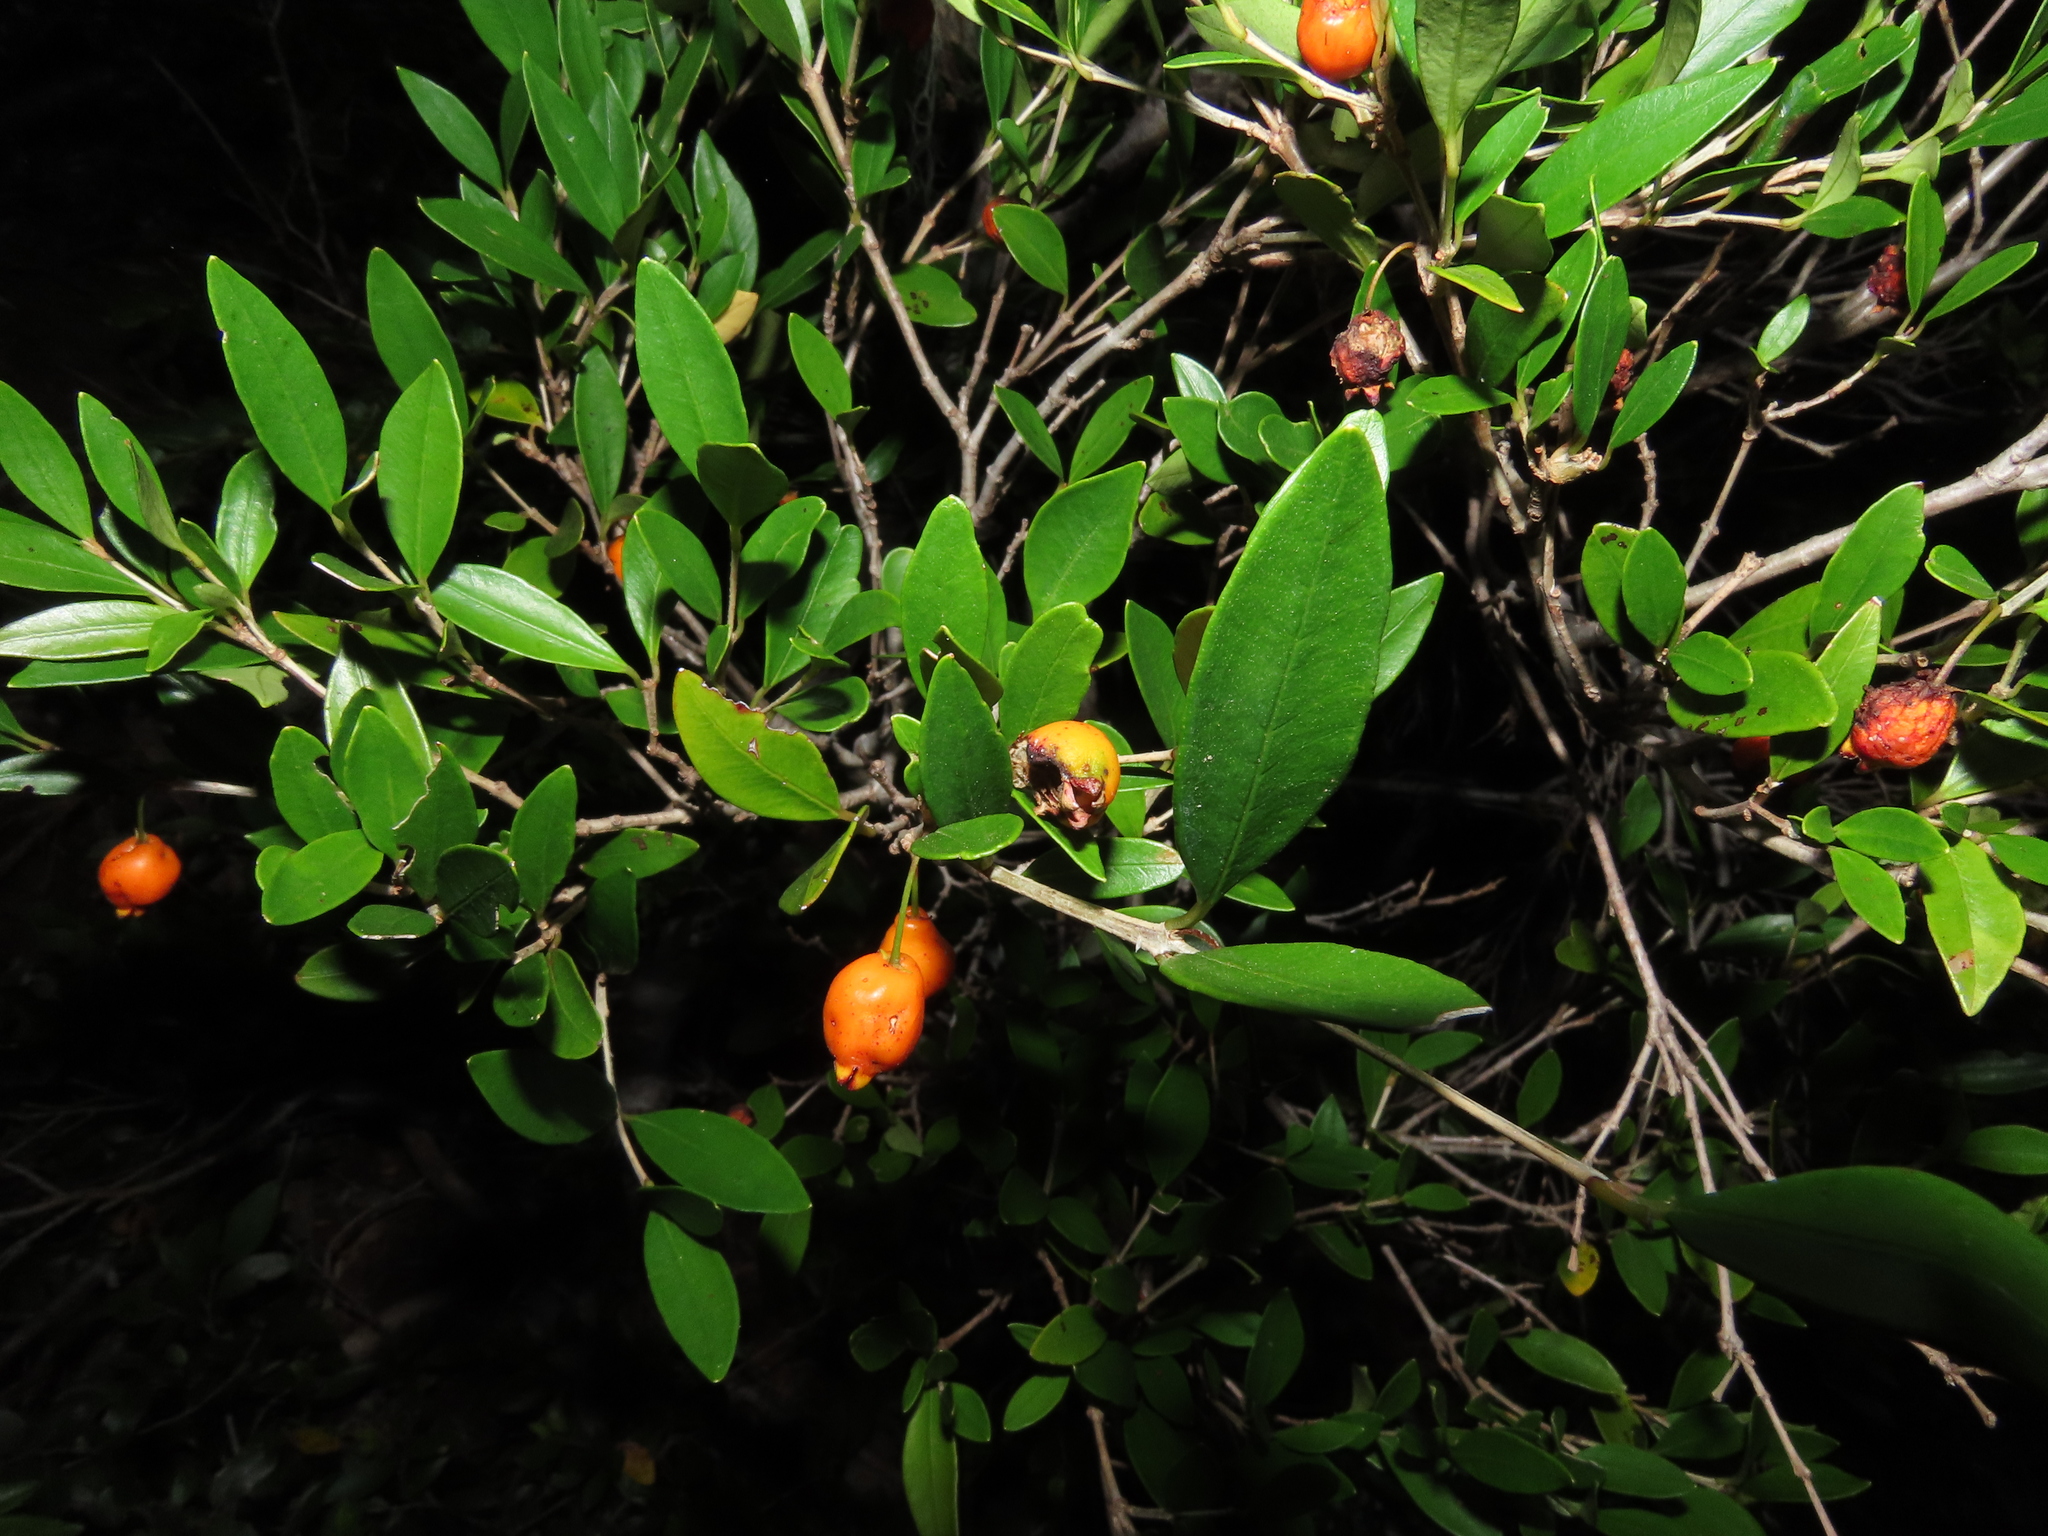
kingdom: Plantae
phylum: Tracheophyta
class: Magnoliopsida
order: Myrtales
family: Myrtaceae
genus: Myrceugenia
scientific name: Myrceugenia chrysocarpa
